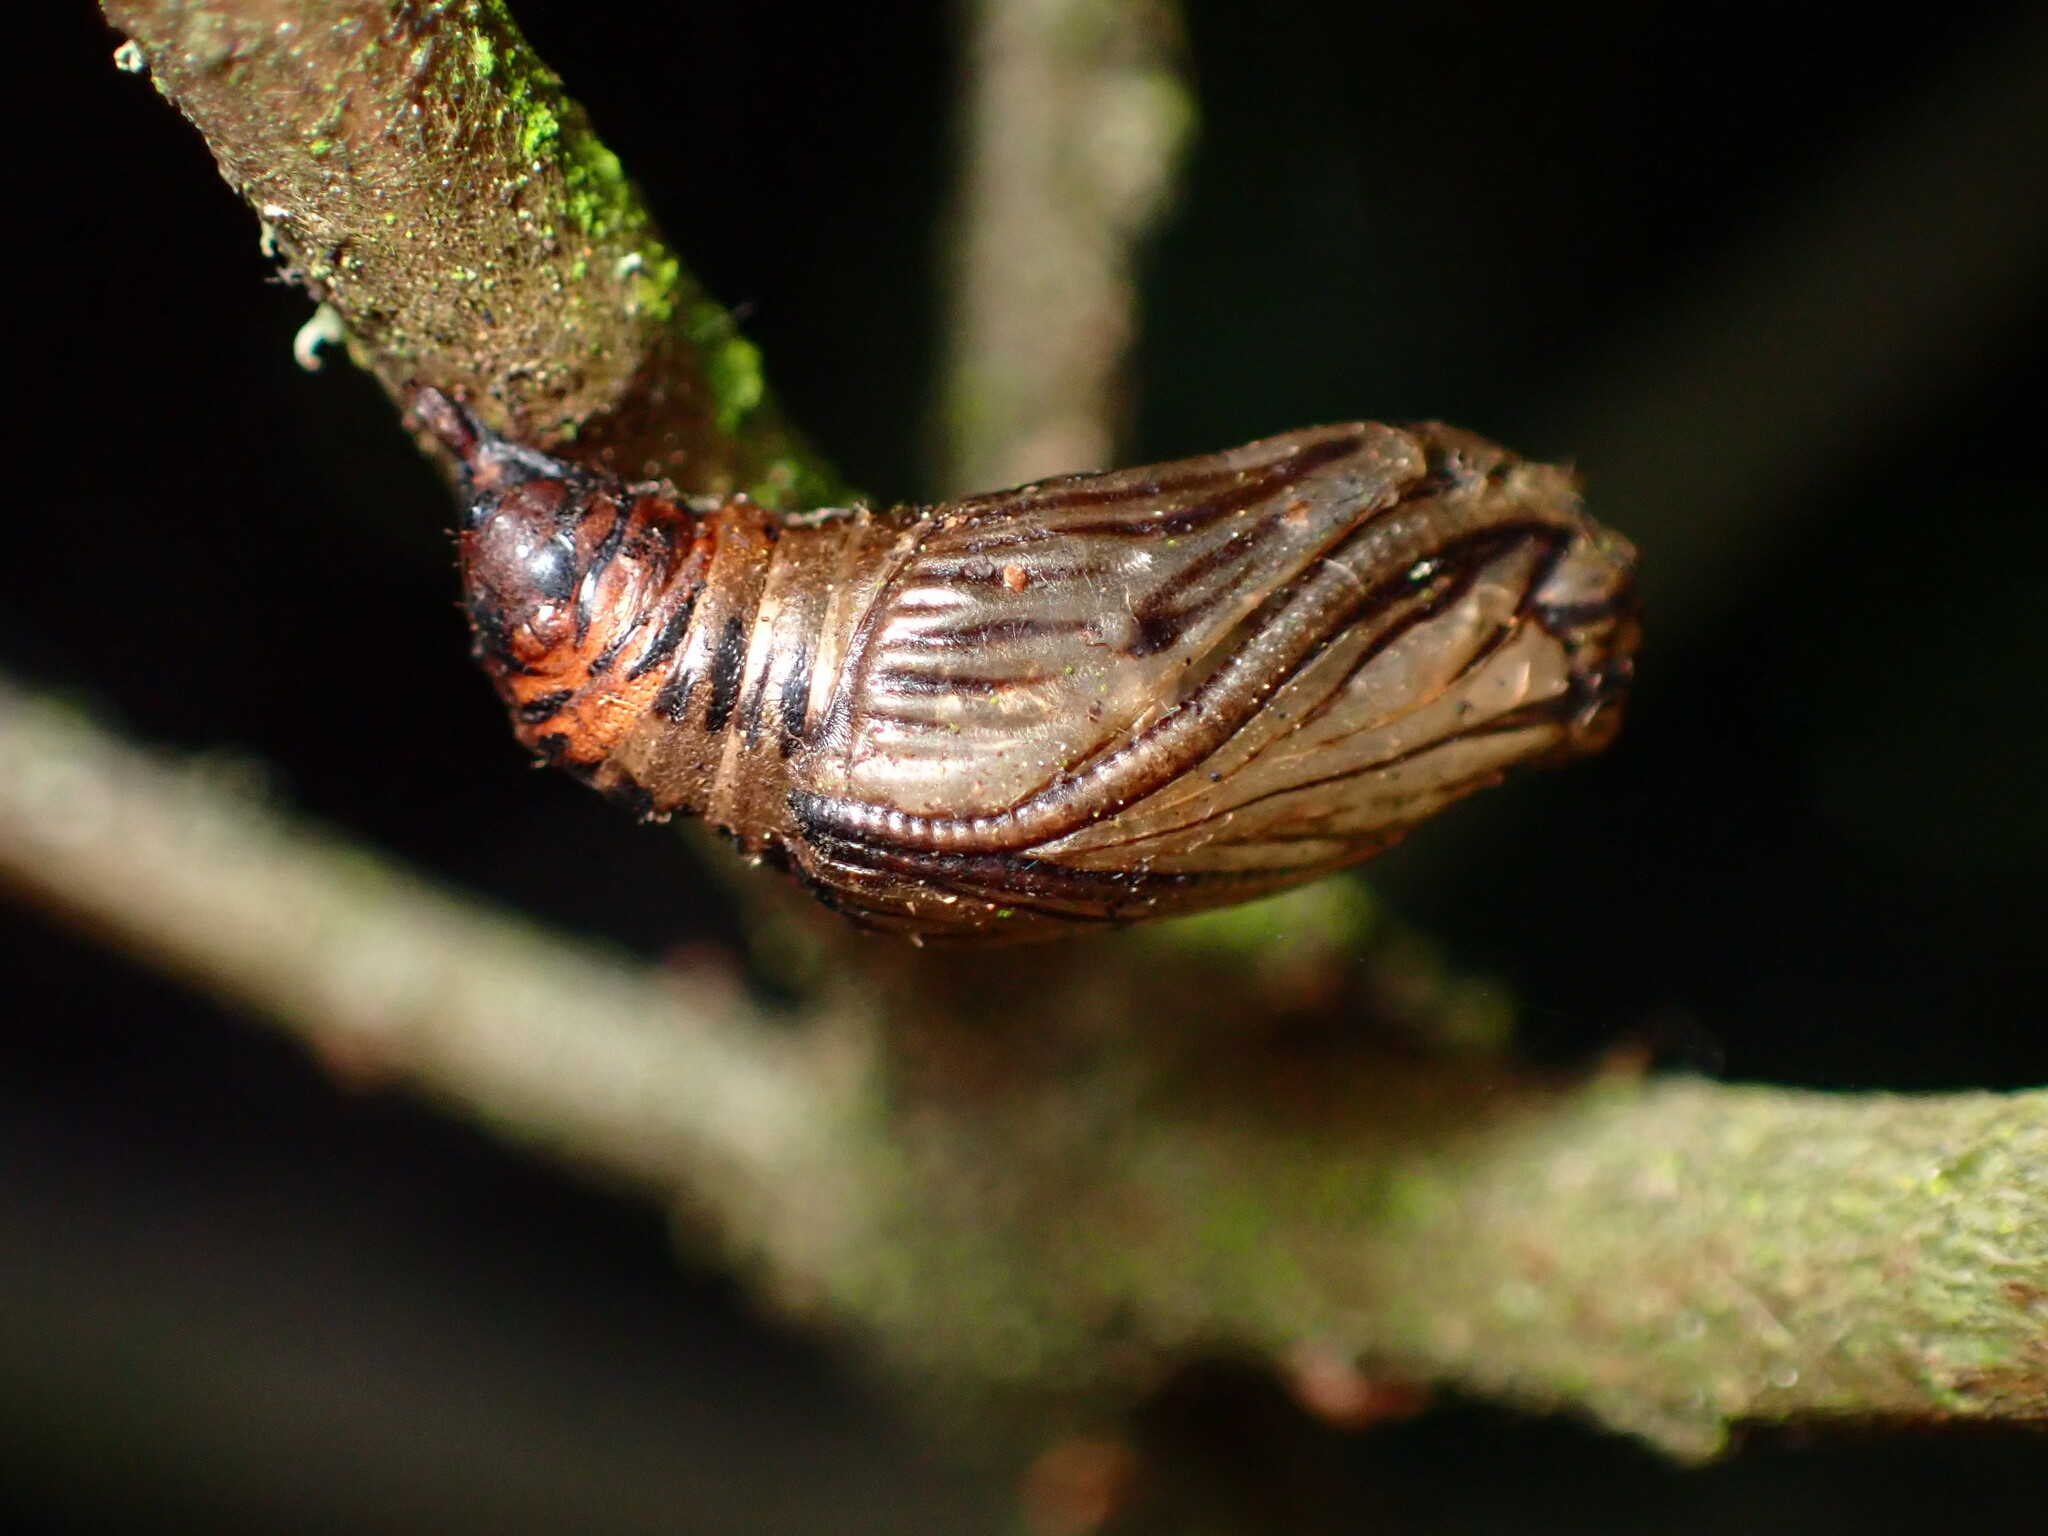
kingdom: Animalia
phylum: Arthropoda
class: Insecta
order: Lepidoptera
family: Notodontidae
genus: Phryganidia
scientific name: Phryganidia californica
